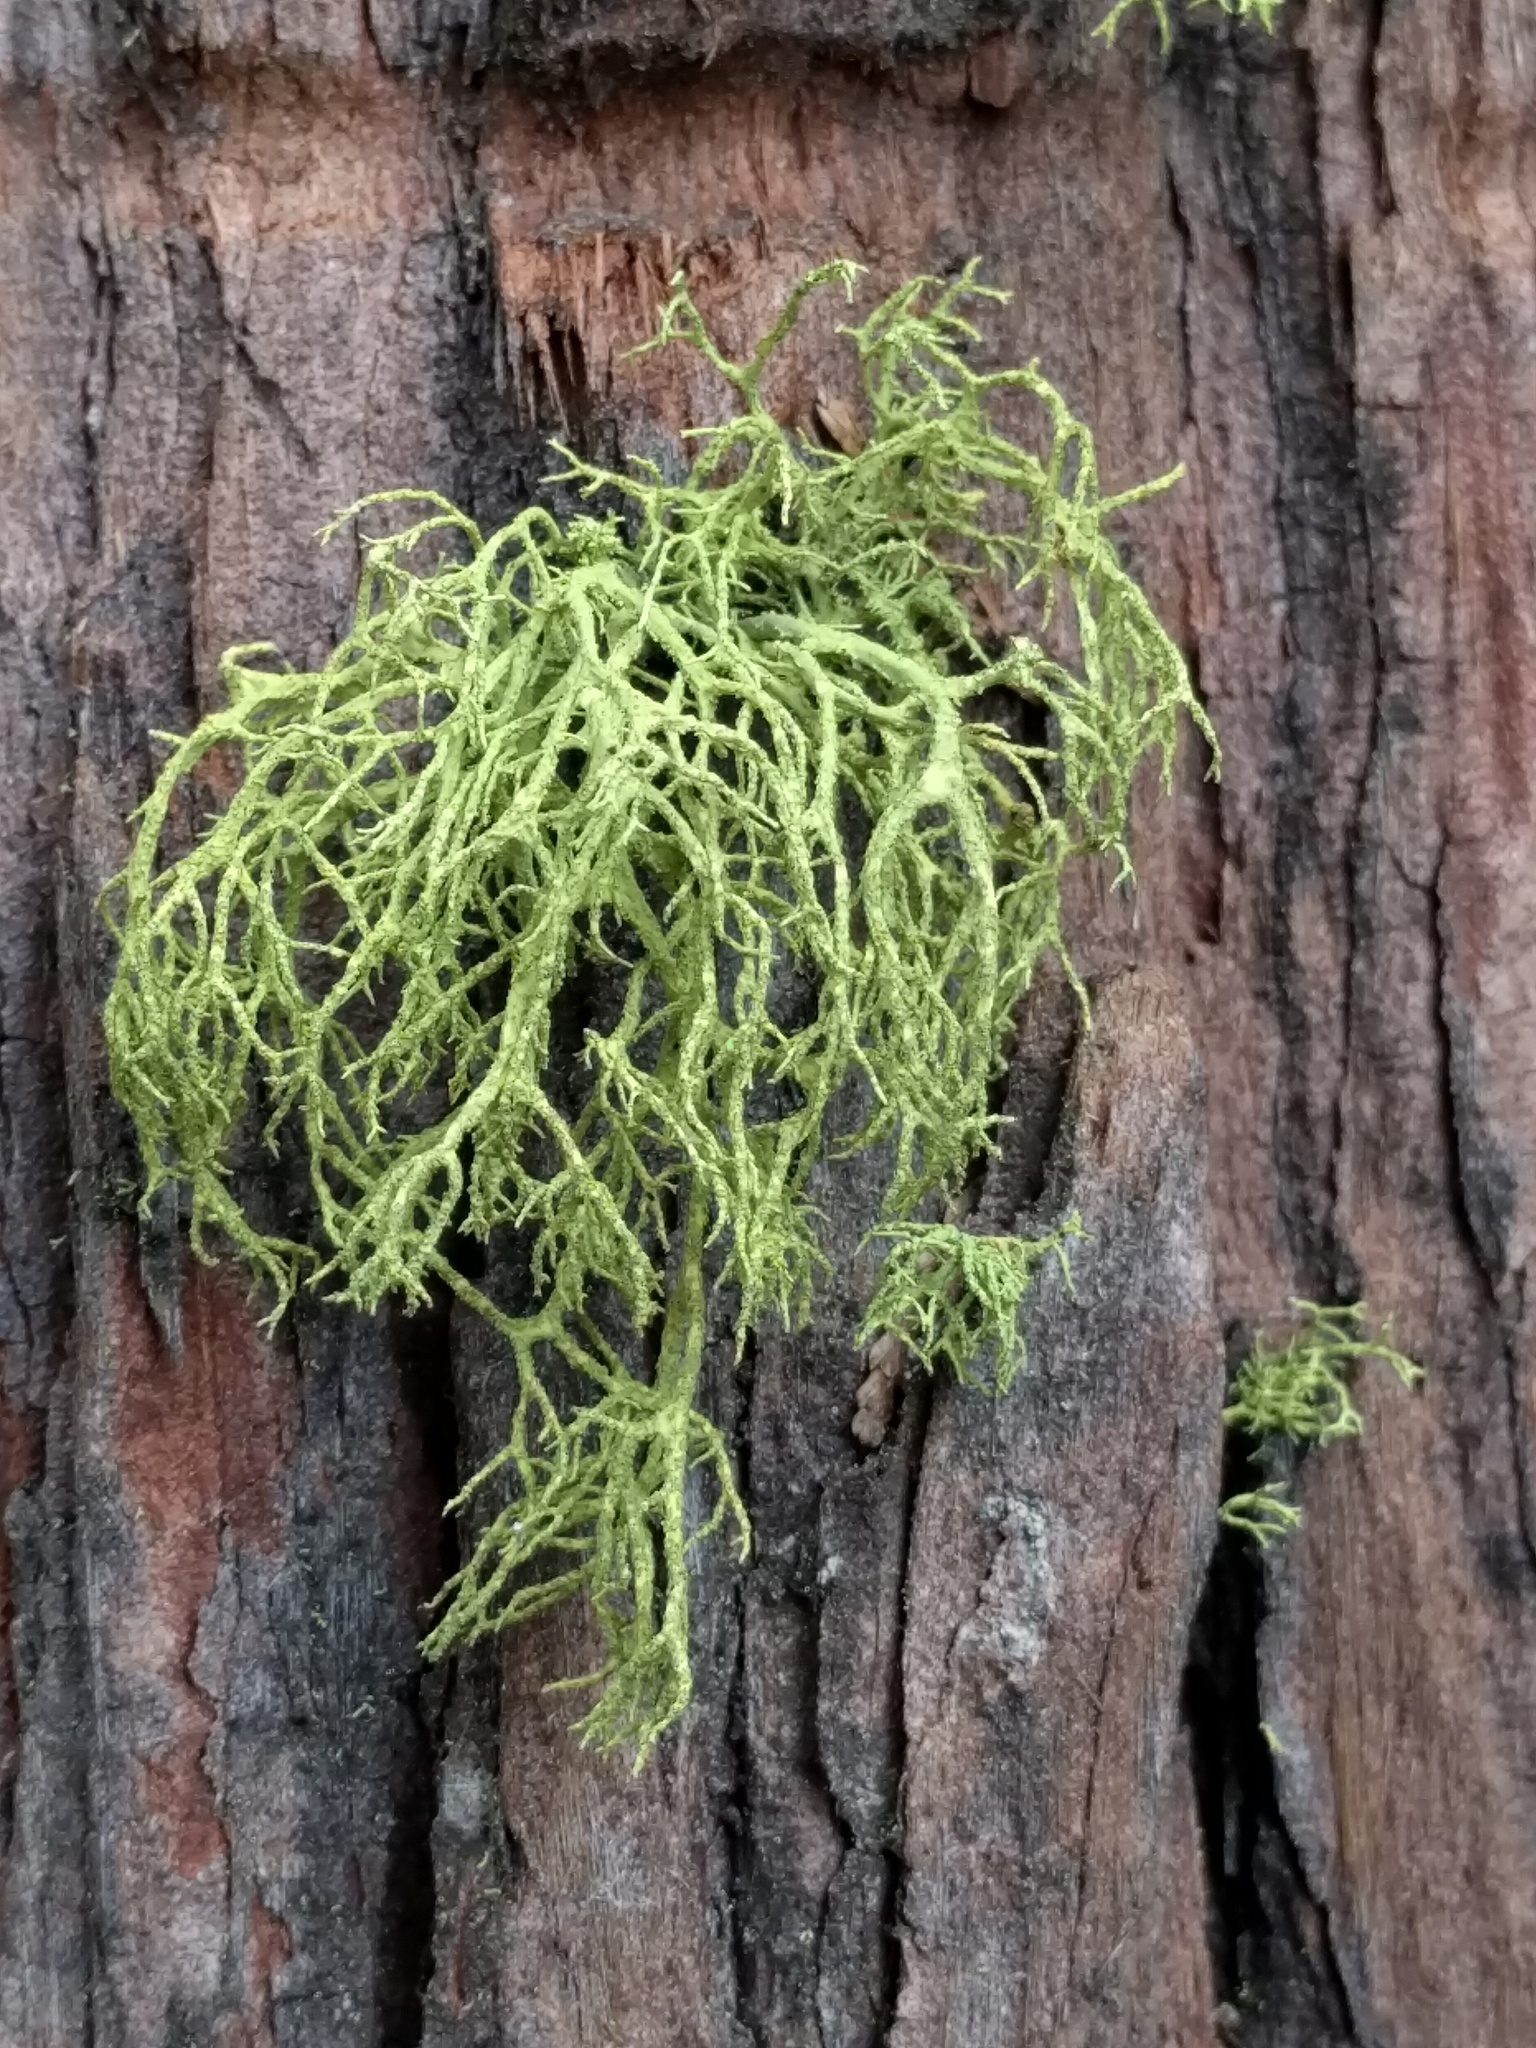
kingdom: Fungi
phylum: Ascomycota
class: Lecanoromycetes
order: Lecanorales
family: Parmeliaceae
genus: Letharia
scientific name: Letharia vulpina
